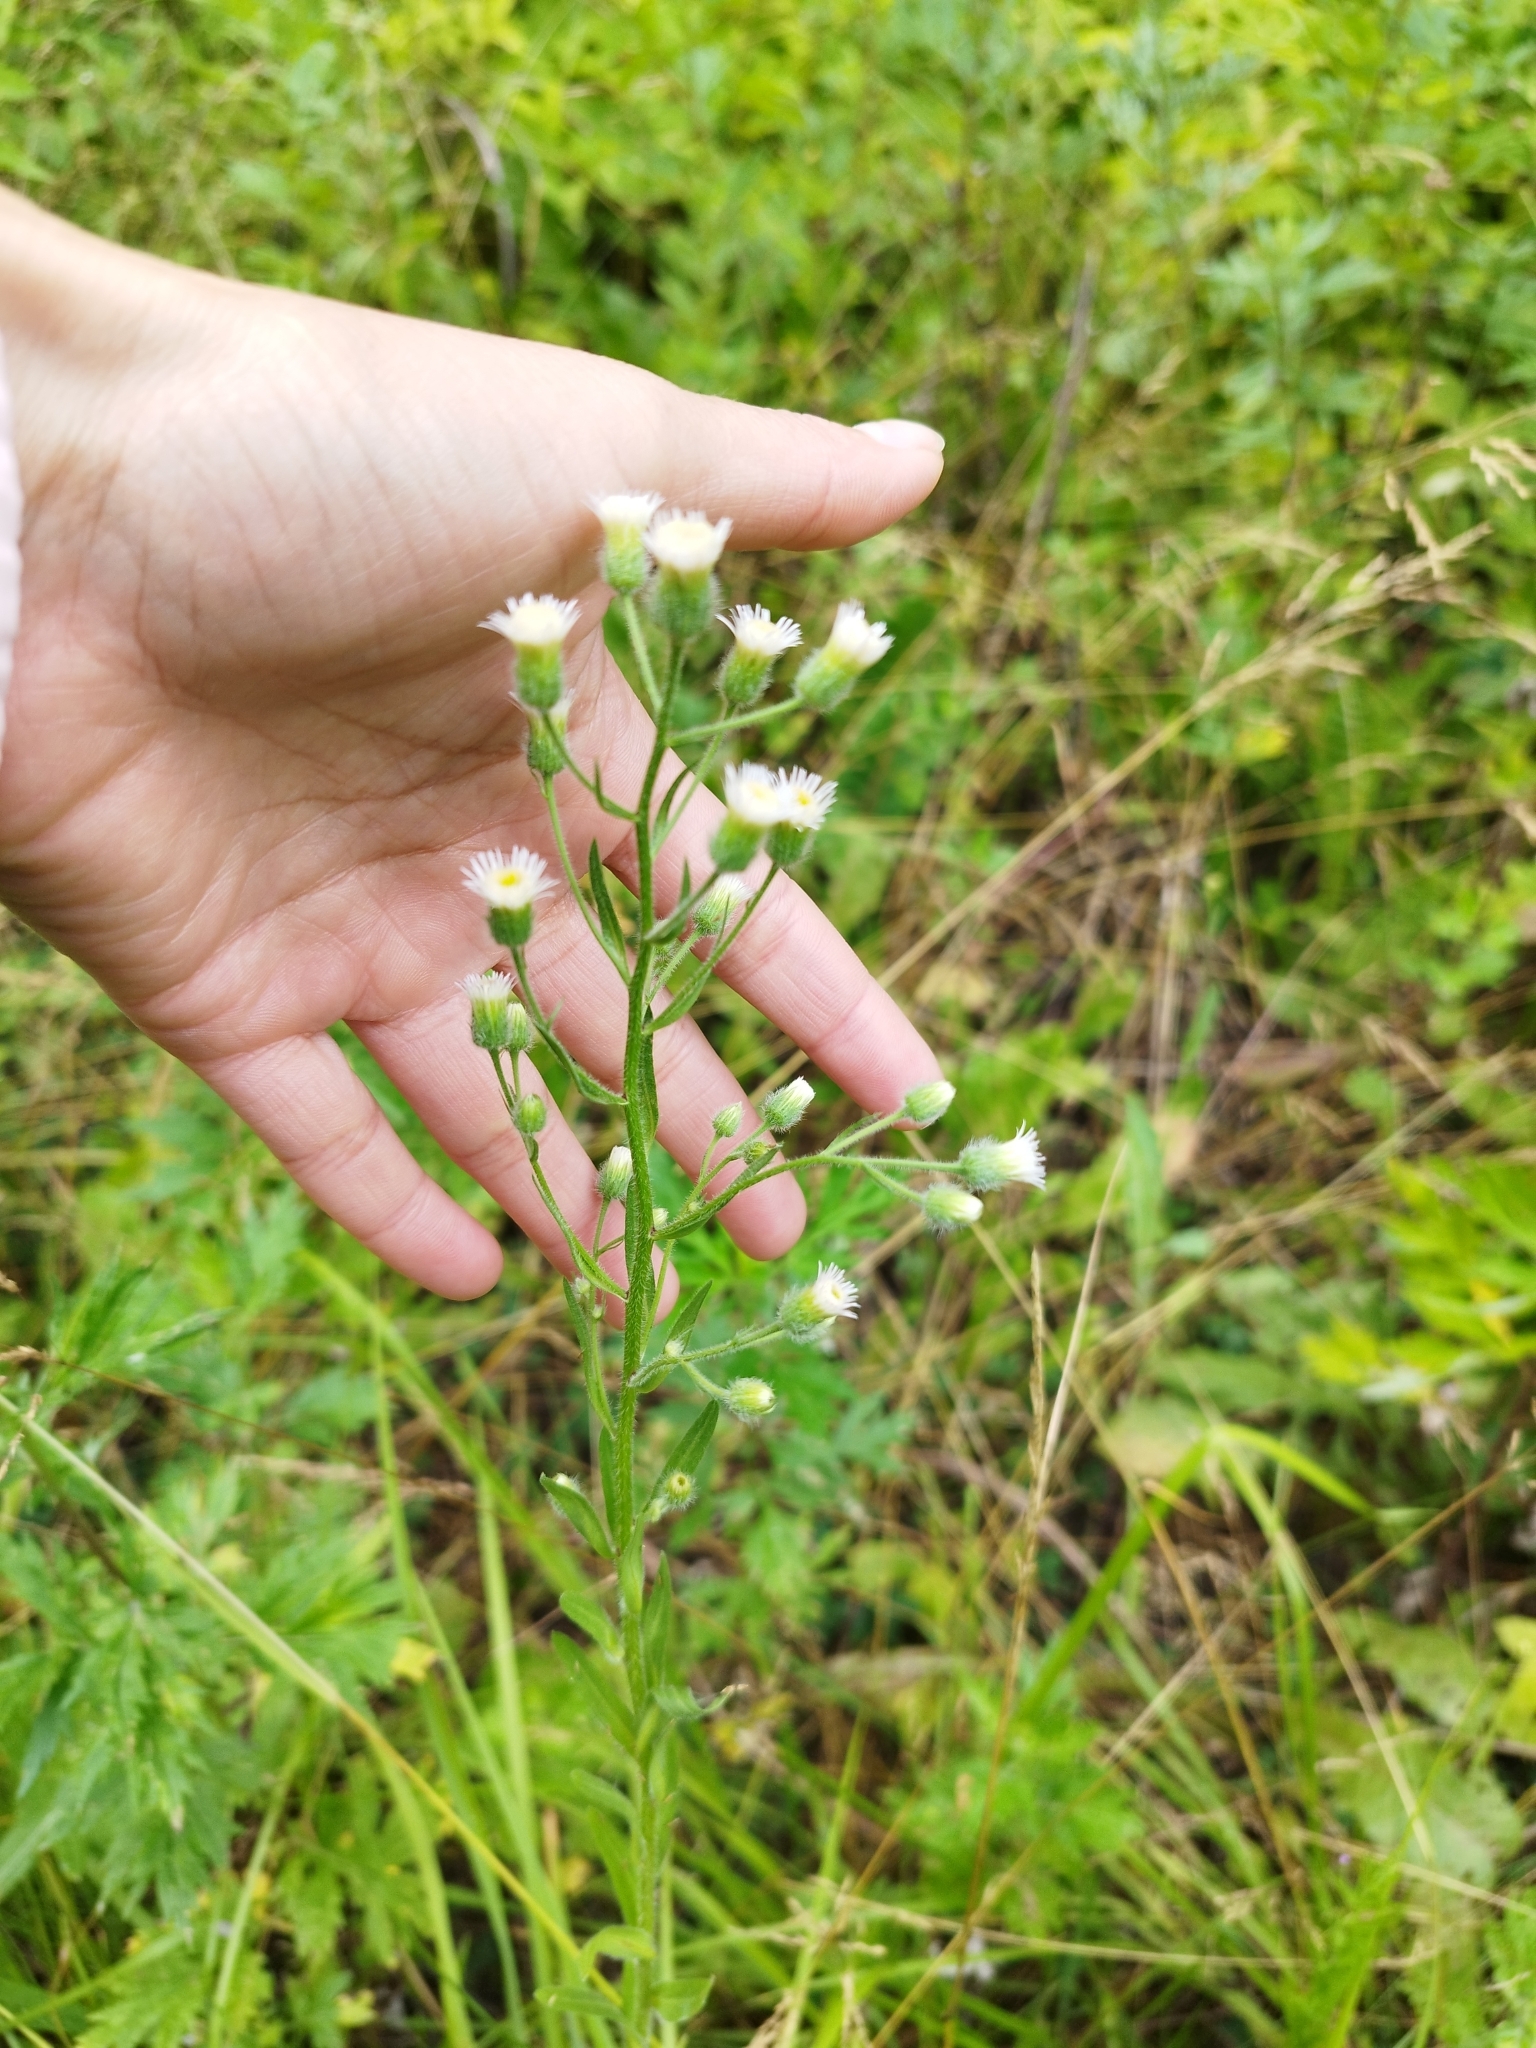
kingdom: Plantae
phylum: Tracheophyta
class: Magnoliopsida
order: Asterales
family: Asteraceae
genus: Erigeron
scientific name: Erigeron acris
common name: Blue fleabane
